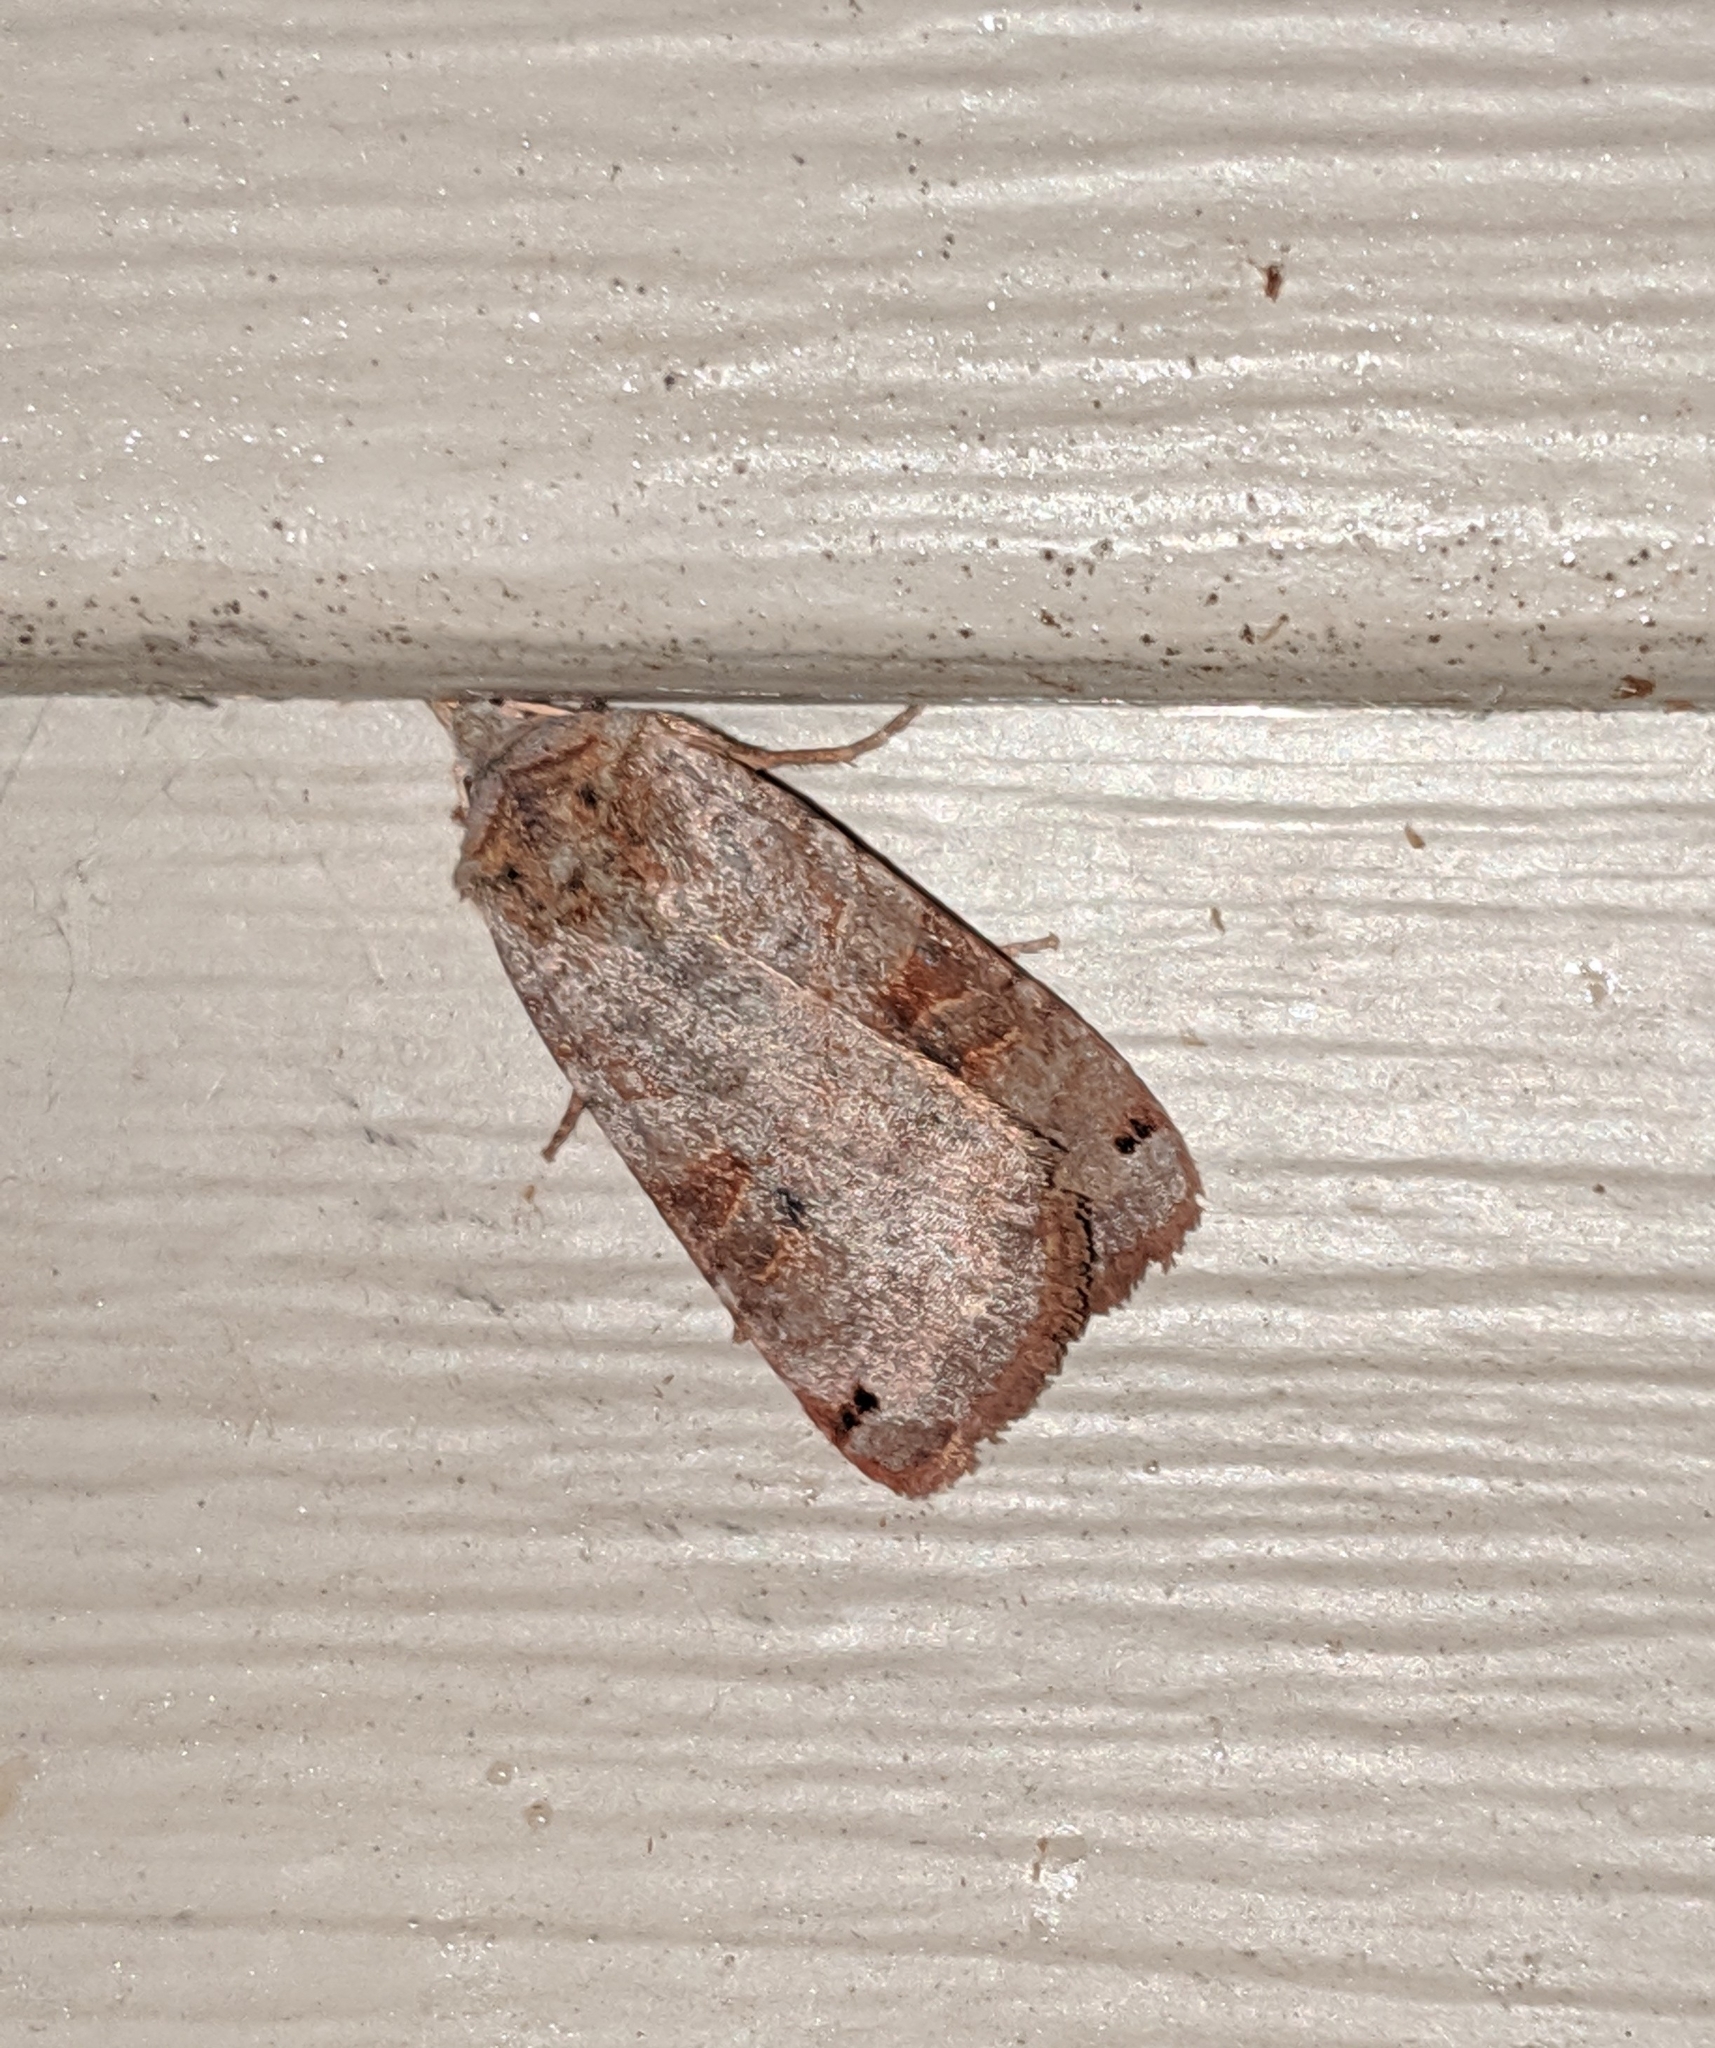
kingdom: Animalia
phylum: Arthropoda
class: Insecta
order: Lepidoptera
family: Noctuidae
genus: Xestia
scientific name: Xestia smithii
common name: Smith's dart
